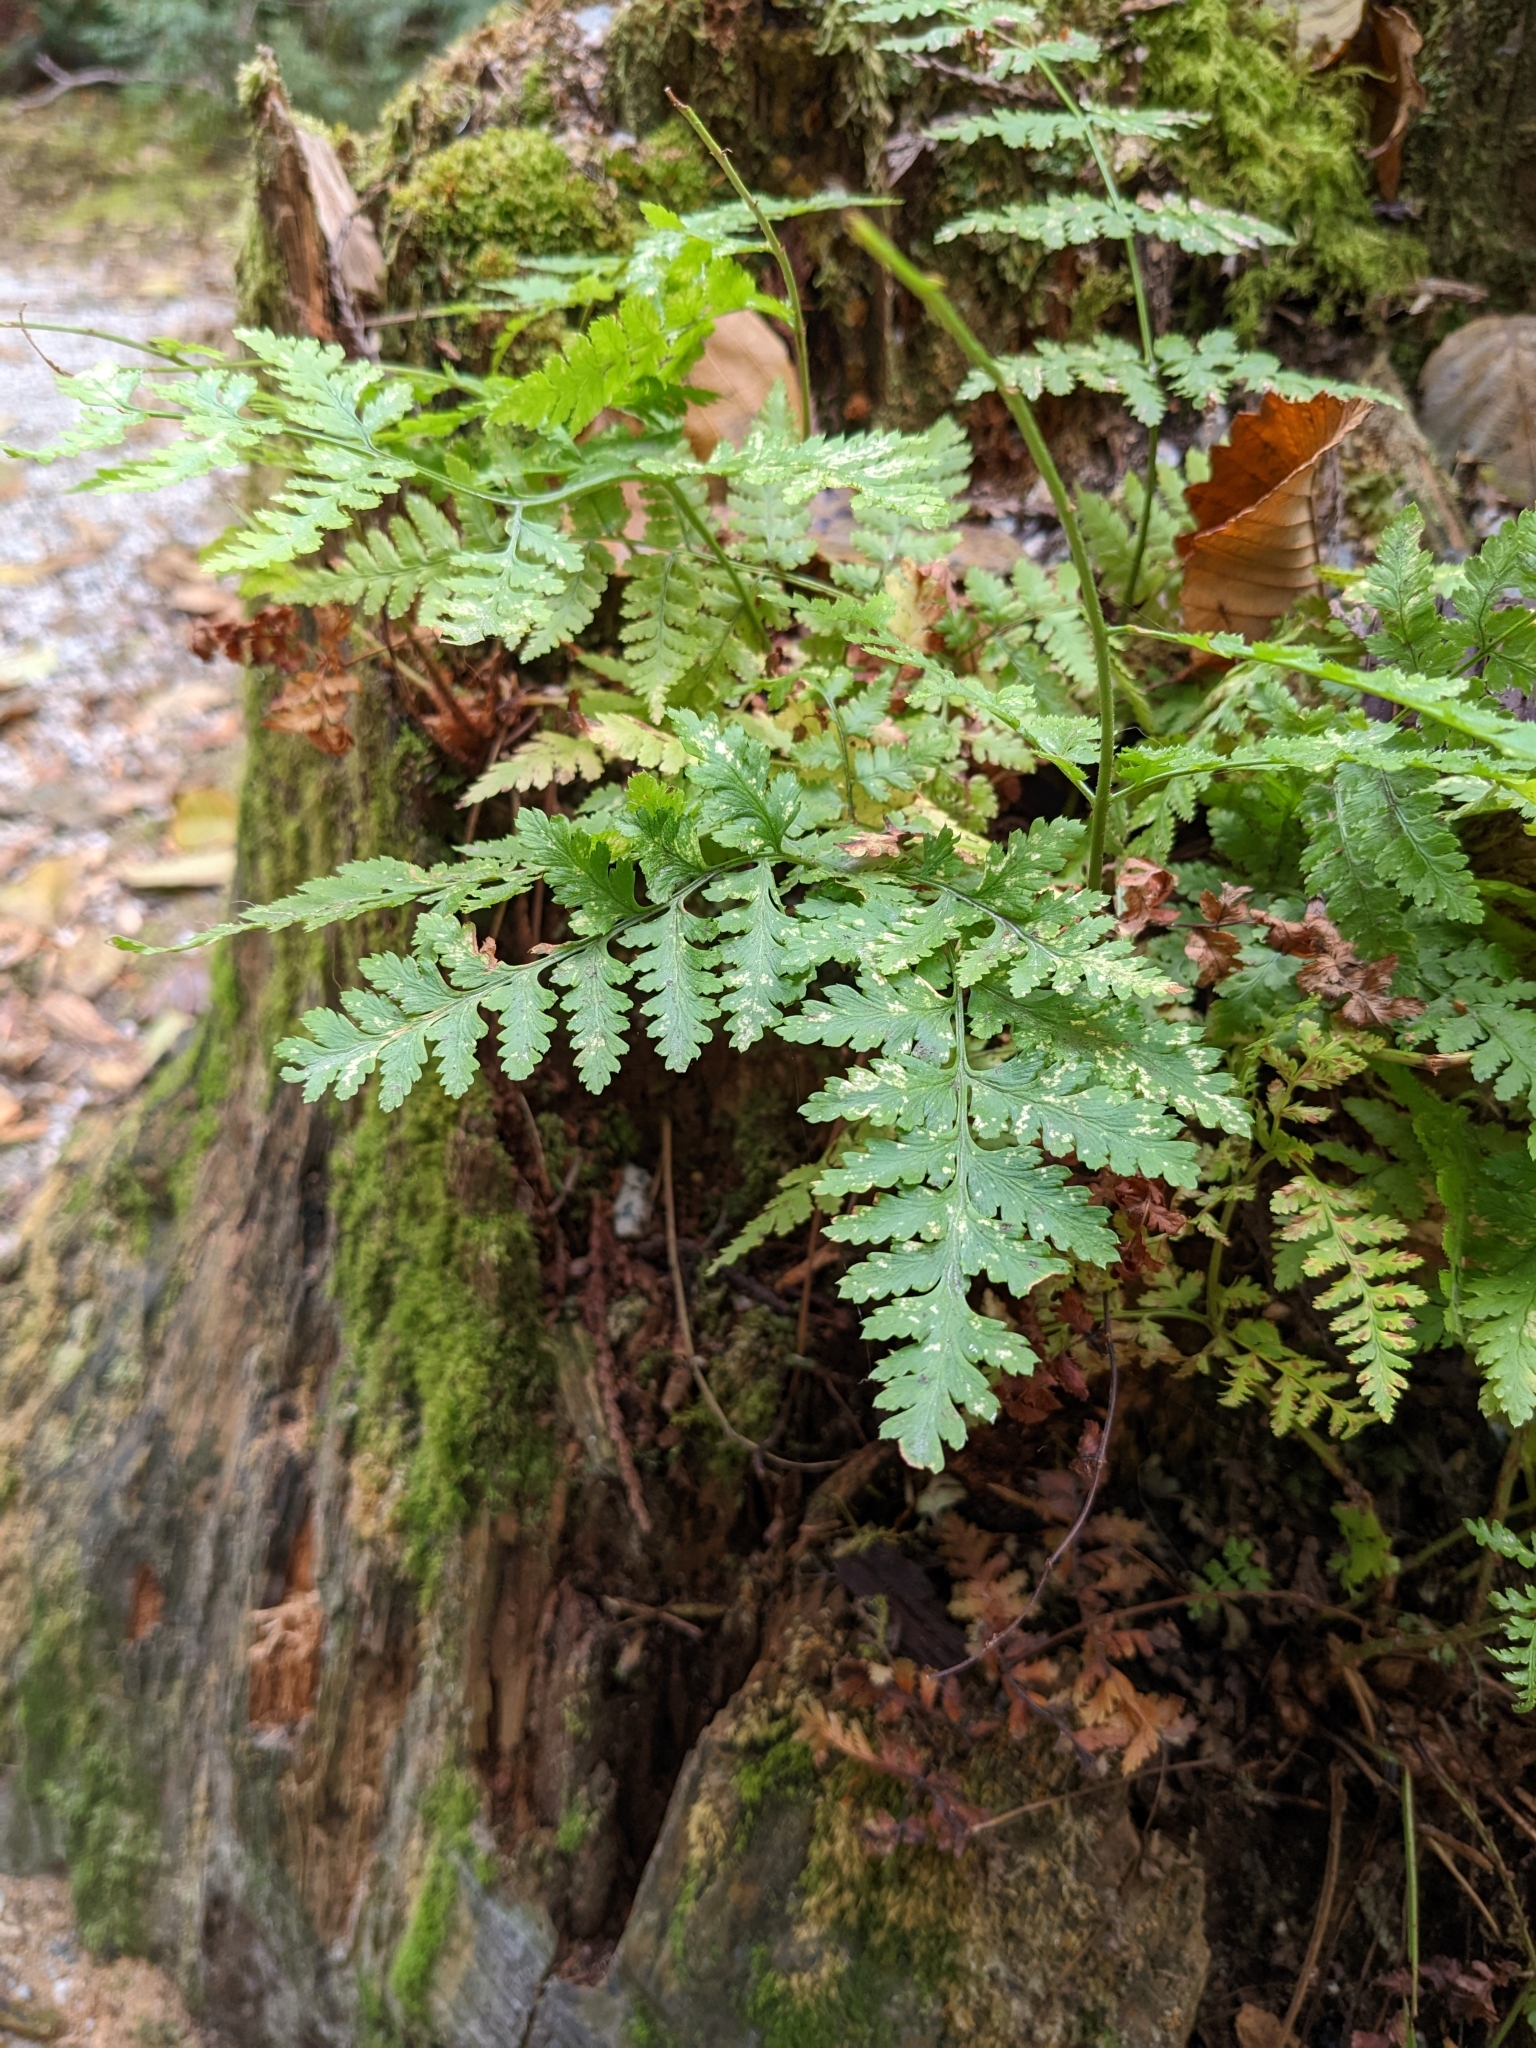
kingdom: Plantae
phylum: Tracheophyta
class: Polypodiopsida
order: Polypodiales
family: Dryopteridaceae
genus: Dryopteris
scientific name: Dryopteris expansa
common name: Northern buckler fern
